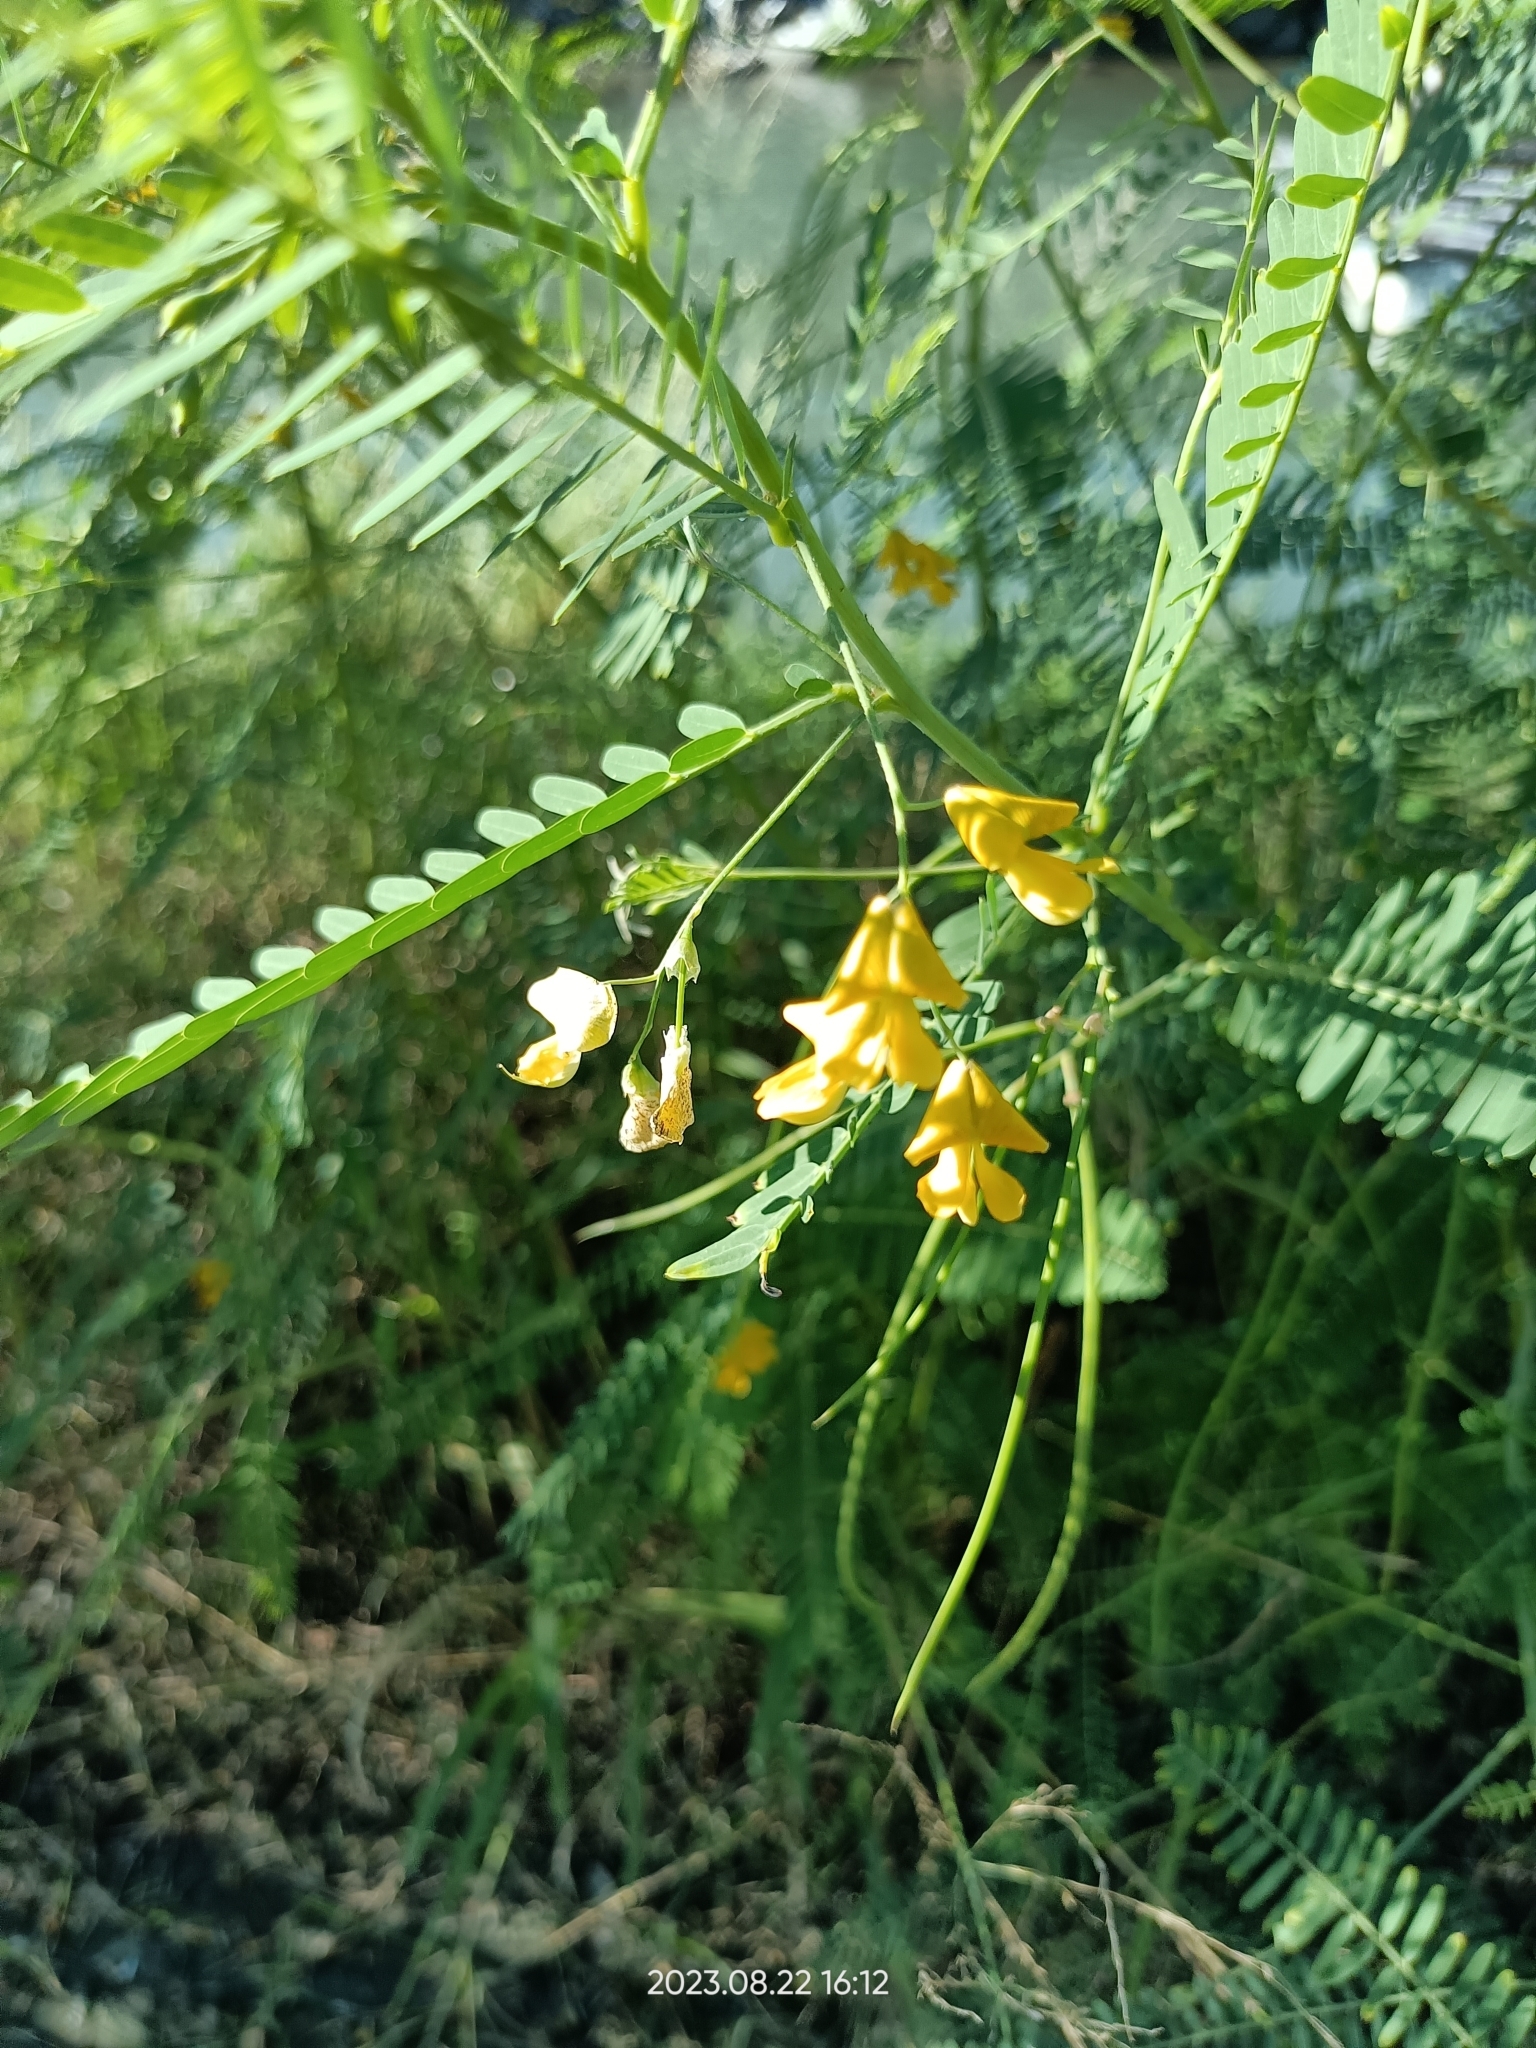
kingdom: Plantae
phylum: Tracheophyta
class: Magnoliopsida
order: Fabales
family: Fabaceae
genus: Sesbania
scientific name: Sesbania cannabina
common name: Canicha
